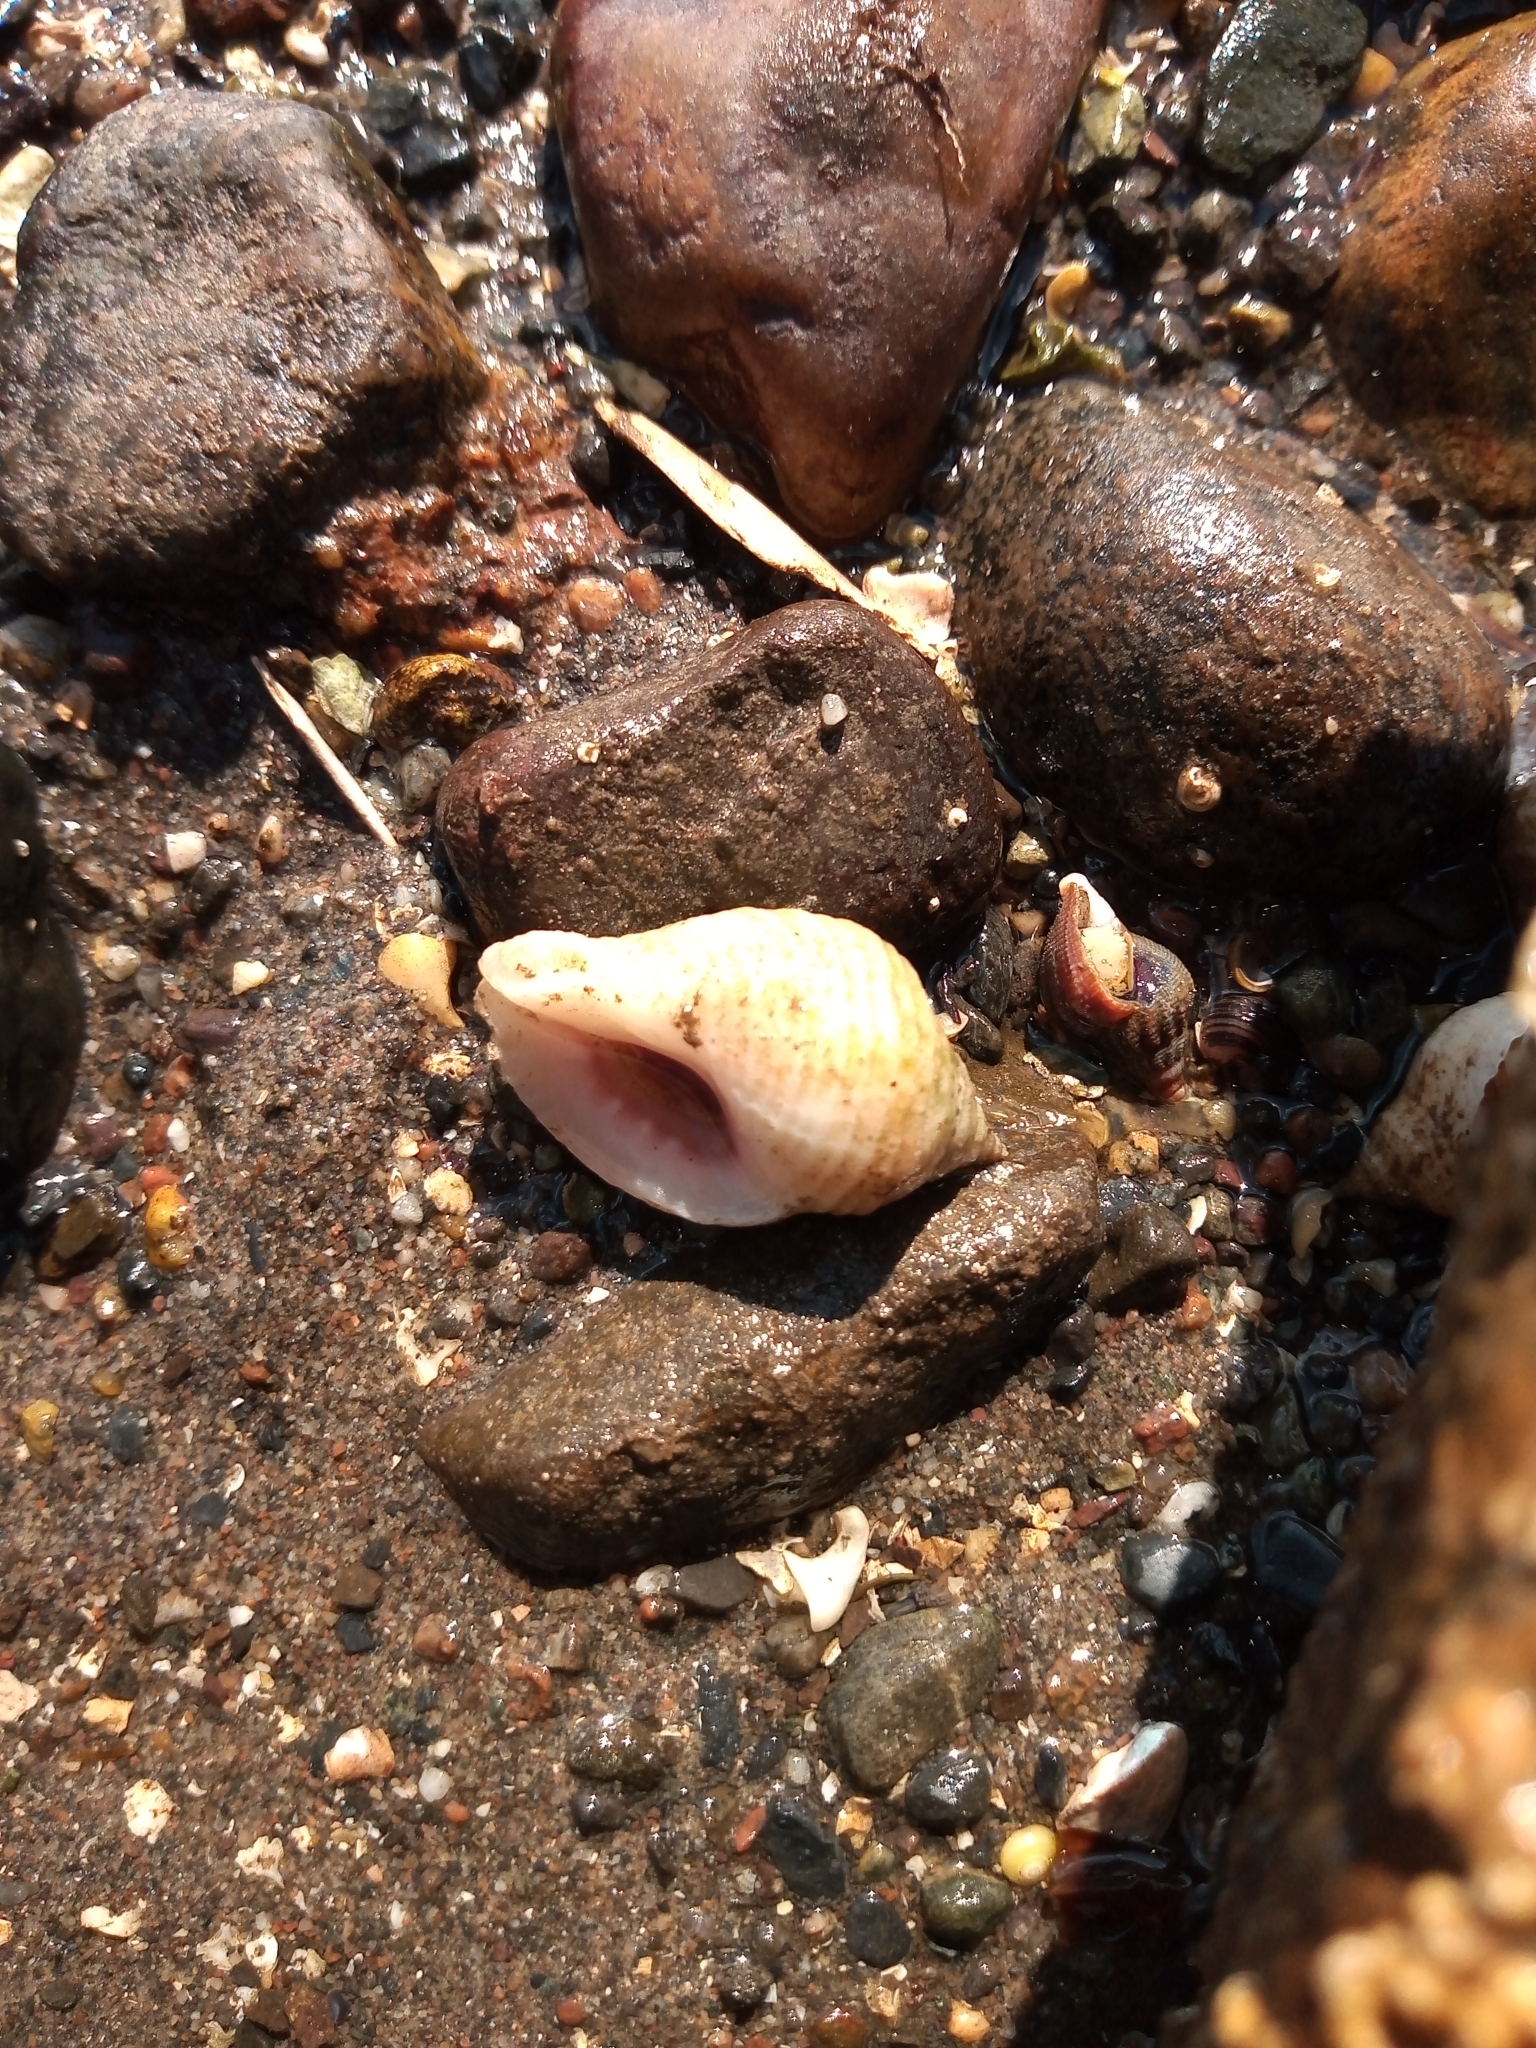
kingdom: Animalia
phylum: Mollusca
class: Gastropoda
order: Neogastropoda
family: Muricidae
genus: Nucella
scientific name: Nucella lapillus
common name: Dog whelk
